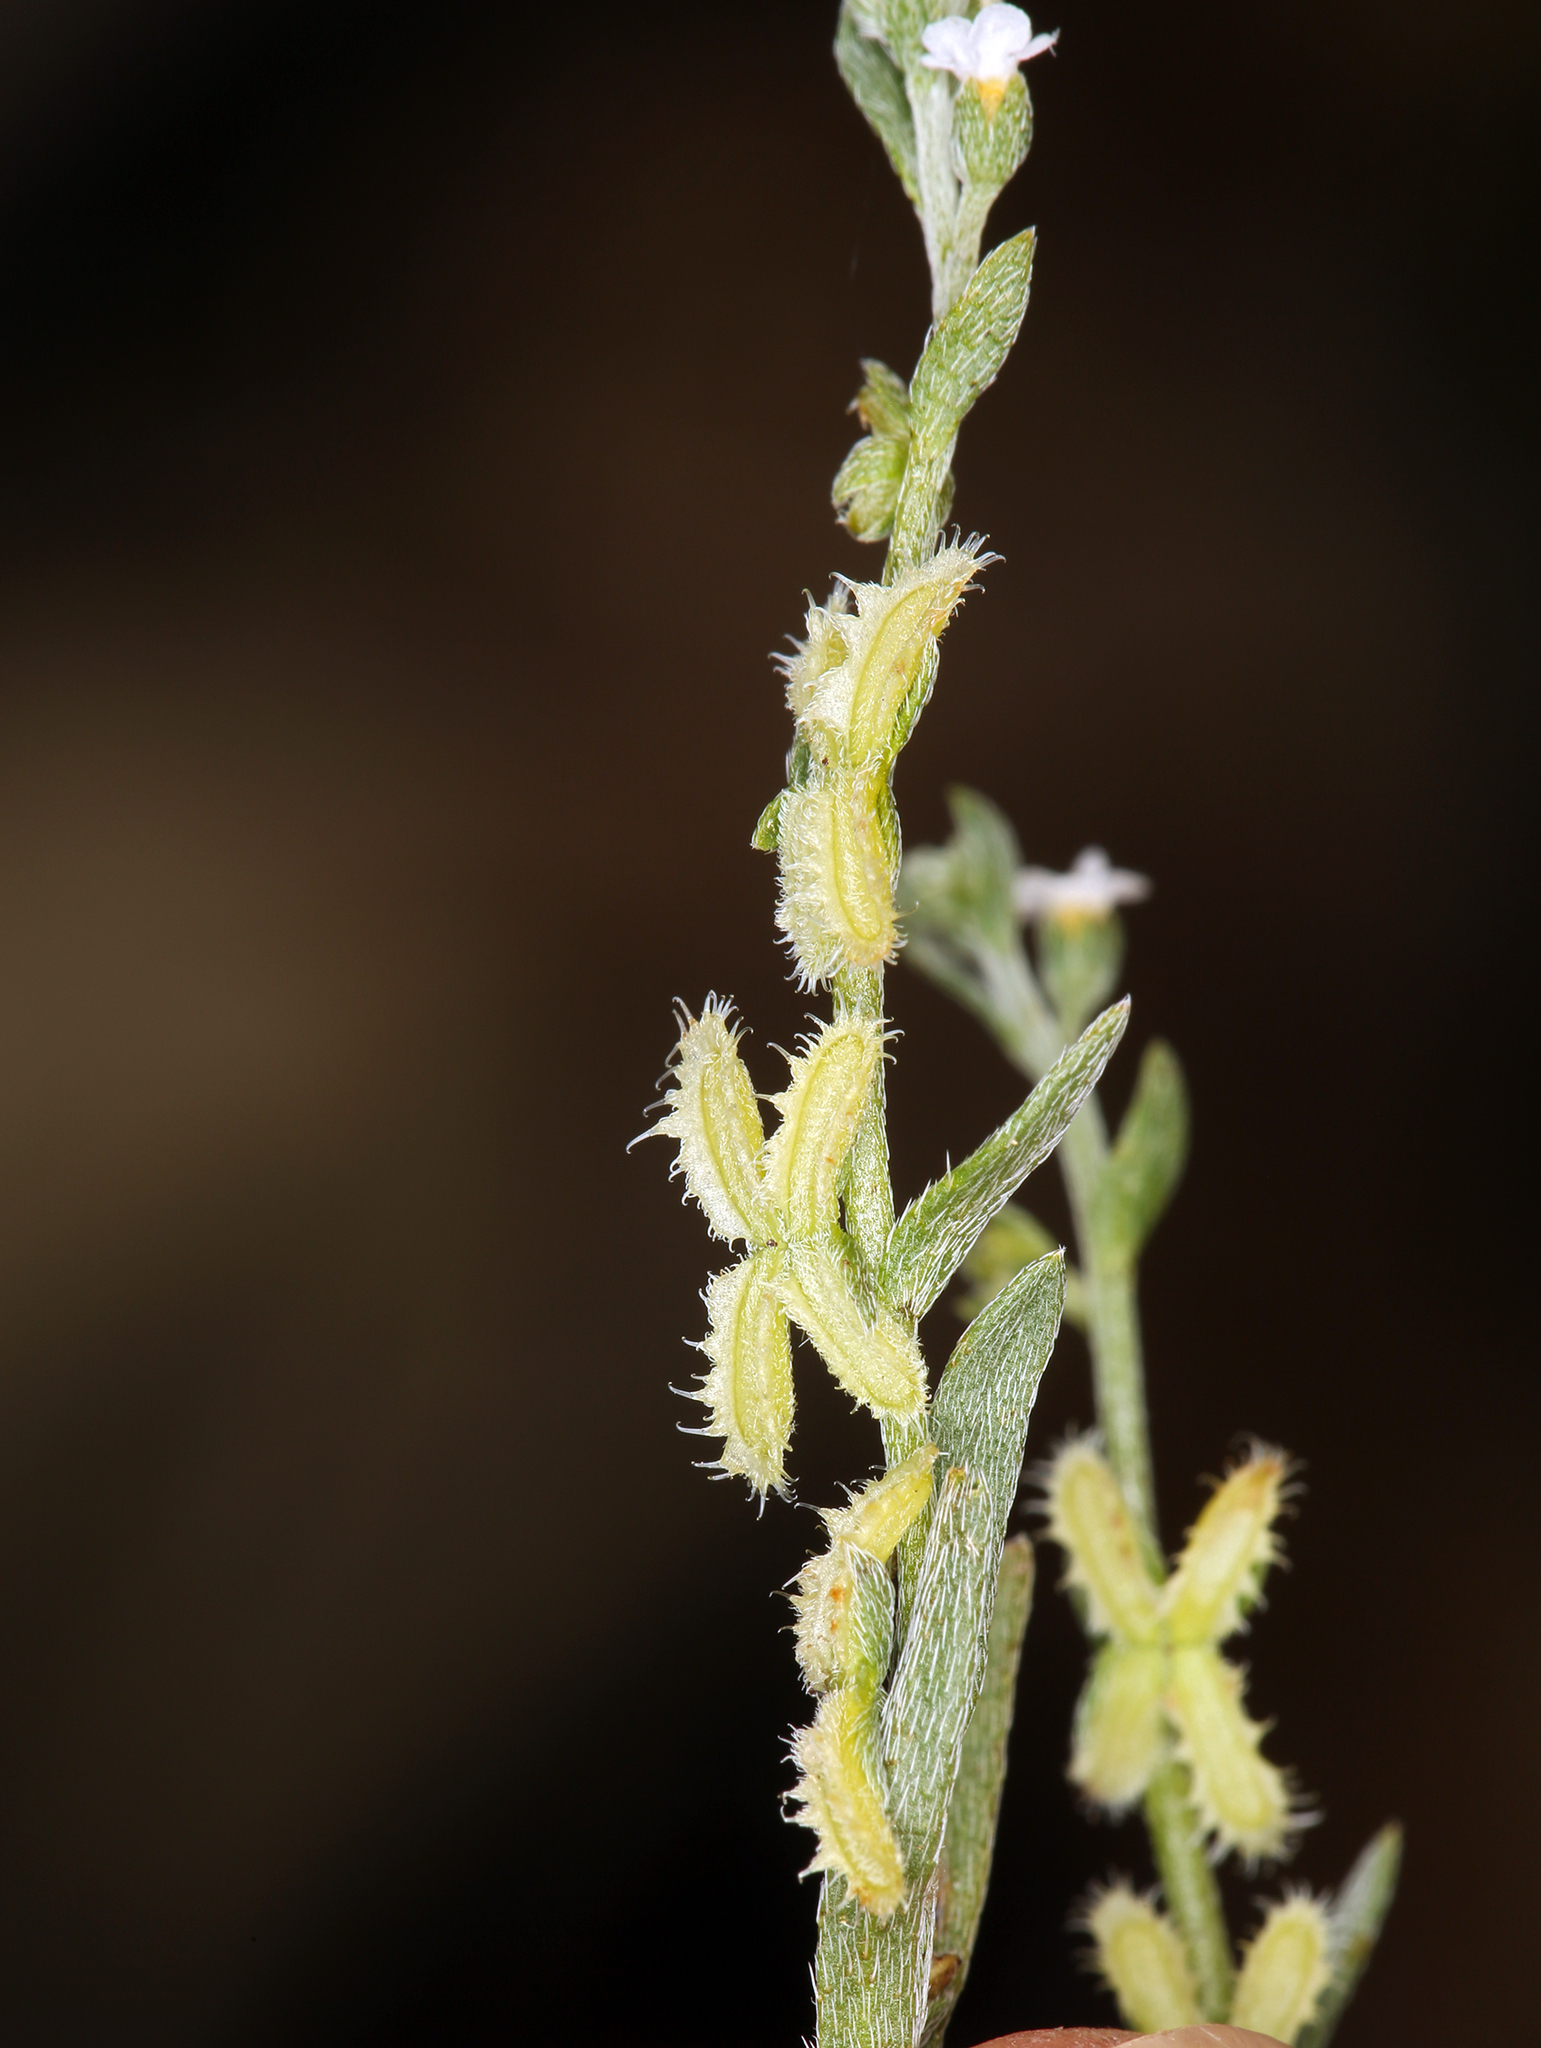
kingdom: Plantae
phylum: Tracheophyta
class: Magnoliopsida
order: Boraginales
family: Boraginaceae
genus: Pectocarya
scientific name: Pectocarya linearis
